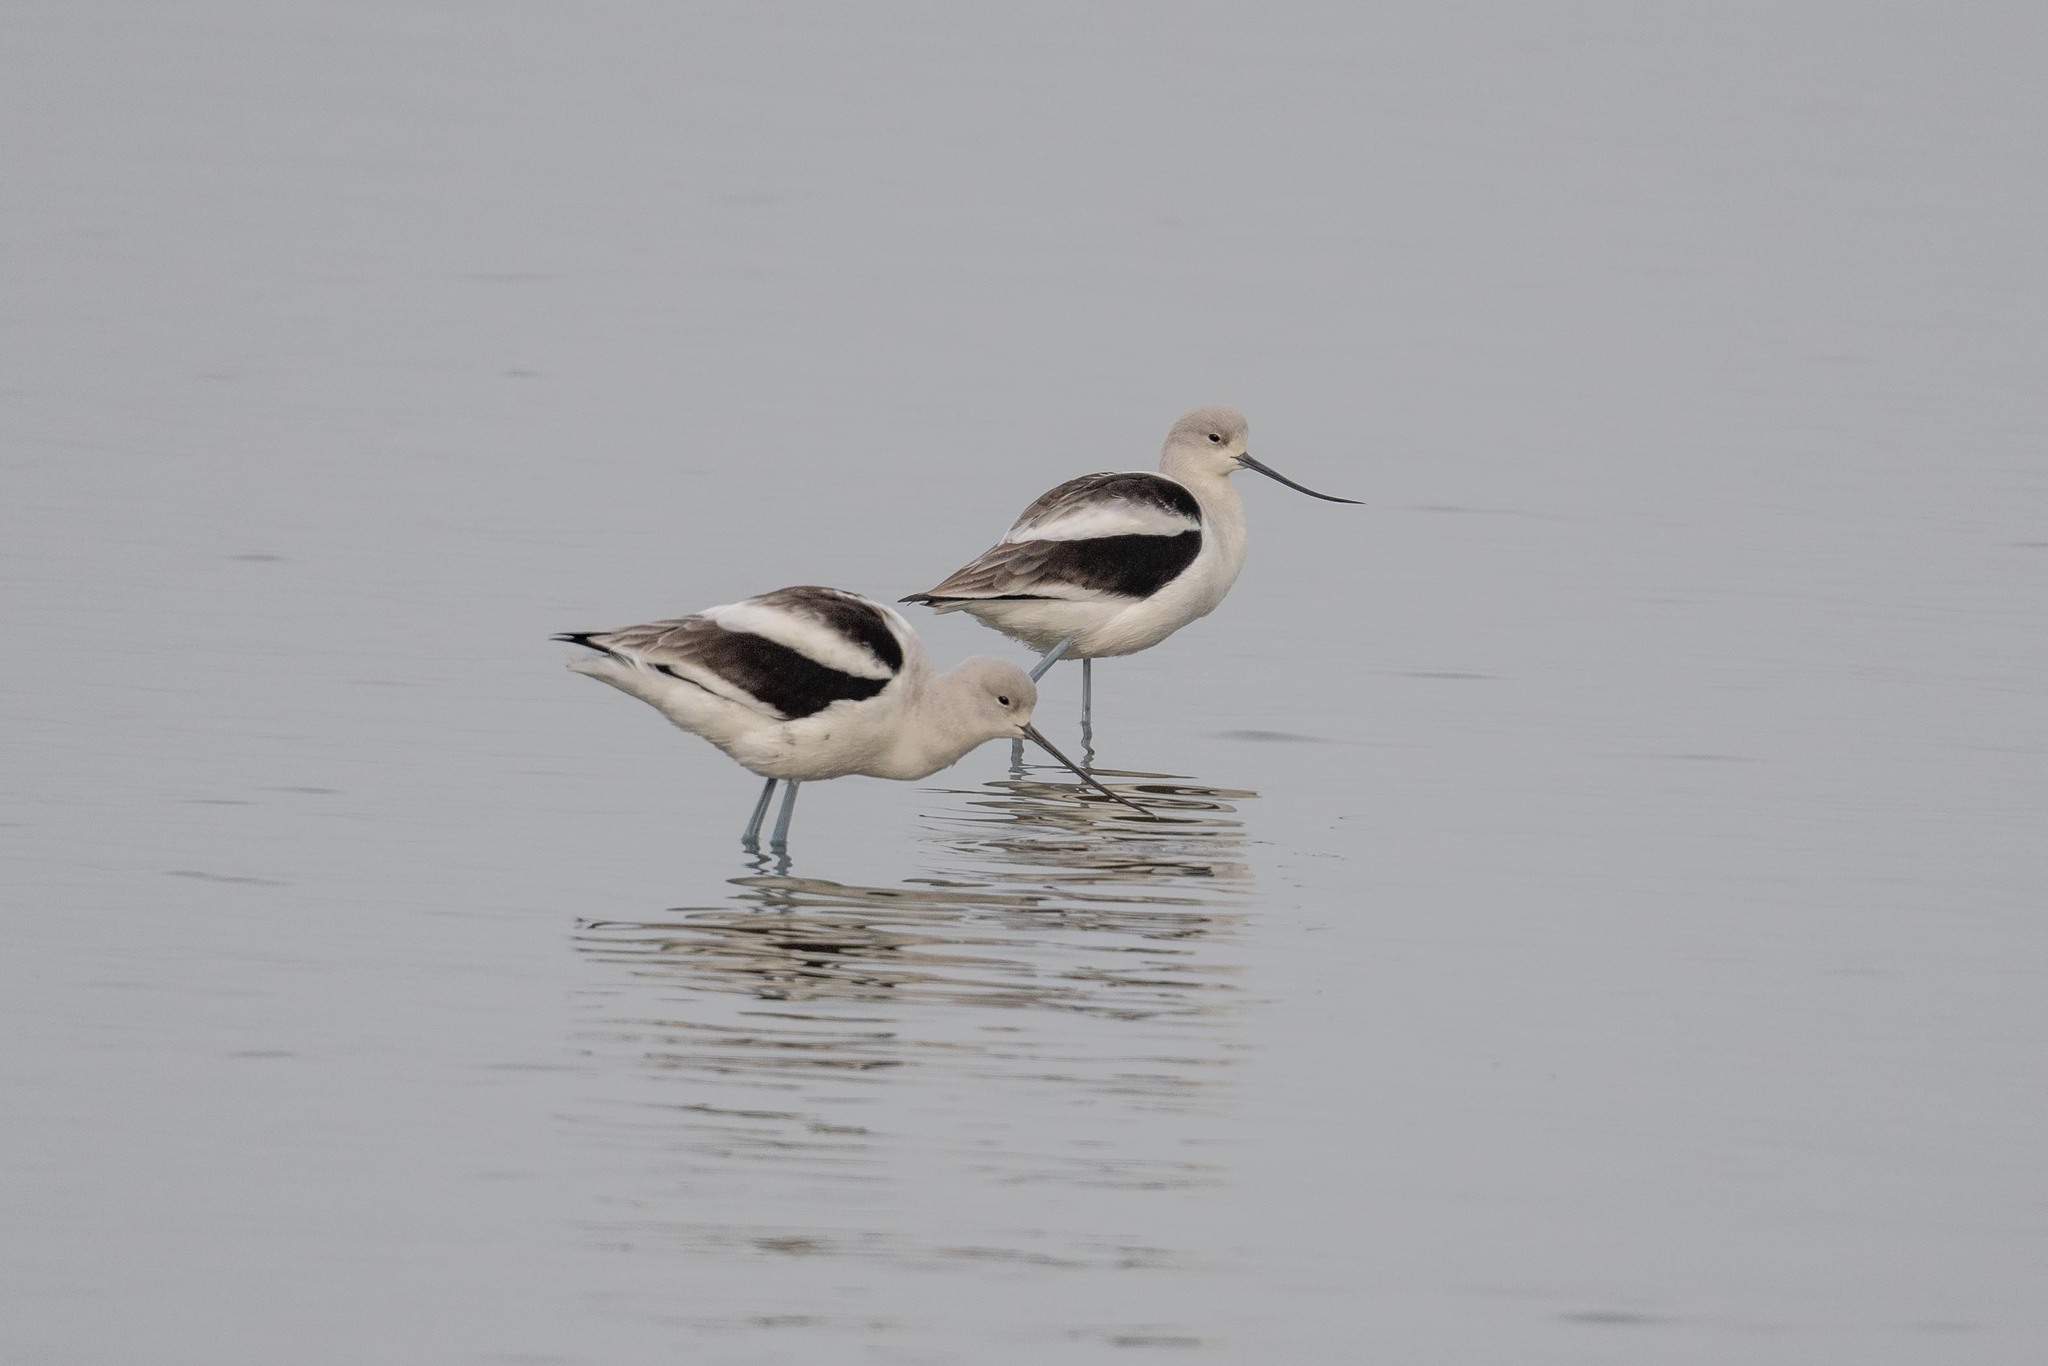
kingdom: Animalia
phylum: Chordata
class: Aves
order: Charadriiformes
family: Recurvirostridae
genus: Recurvirostra
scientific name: Recurvirostra americana
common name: American avocet
